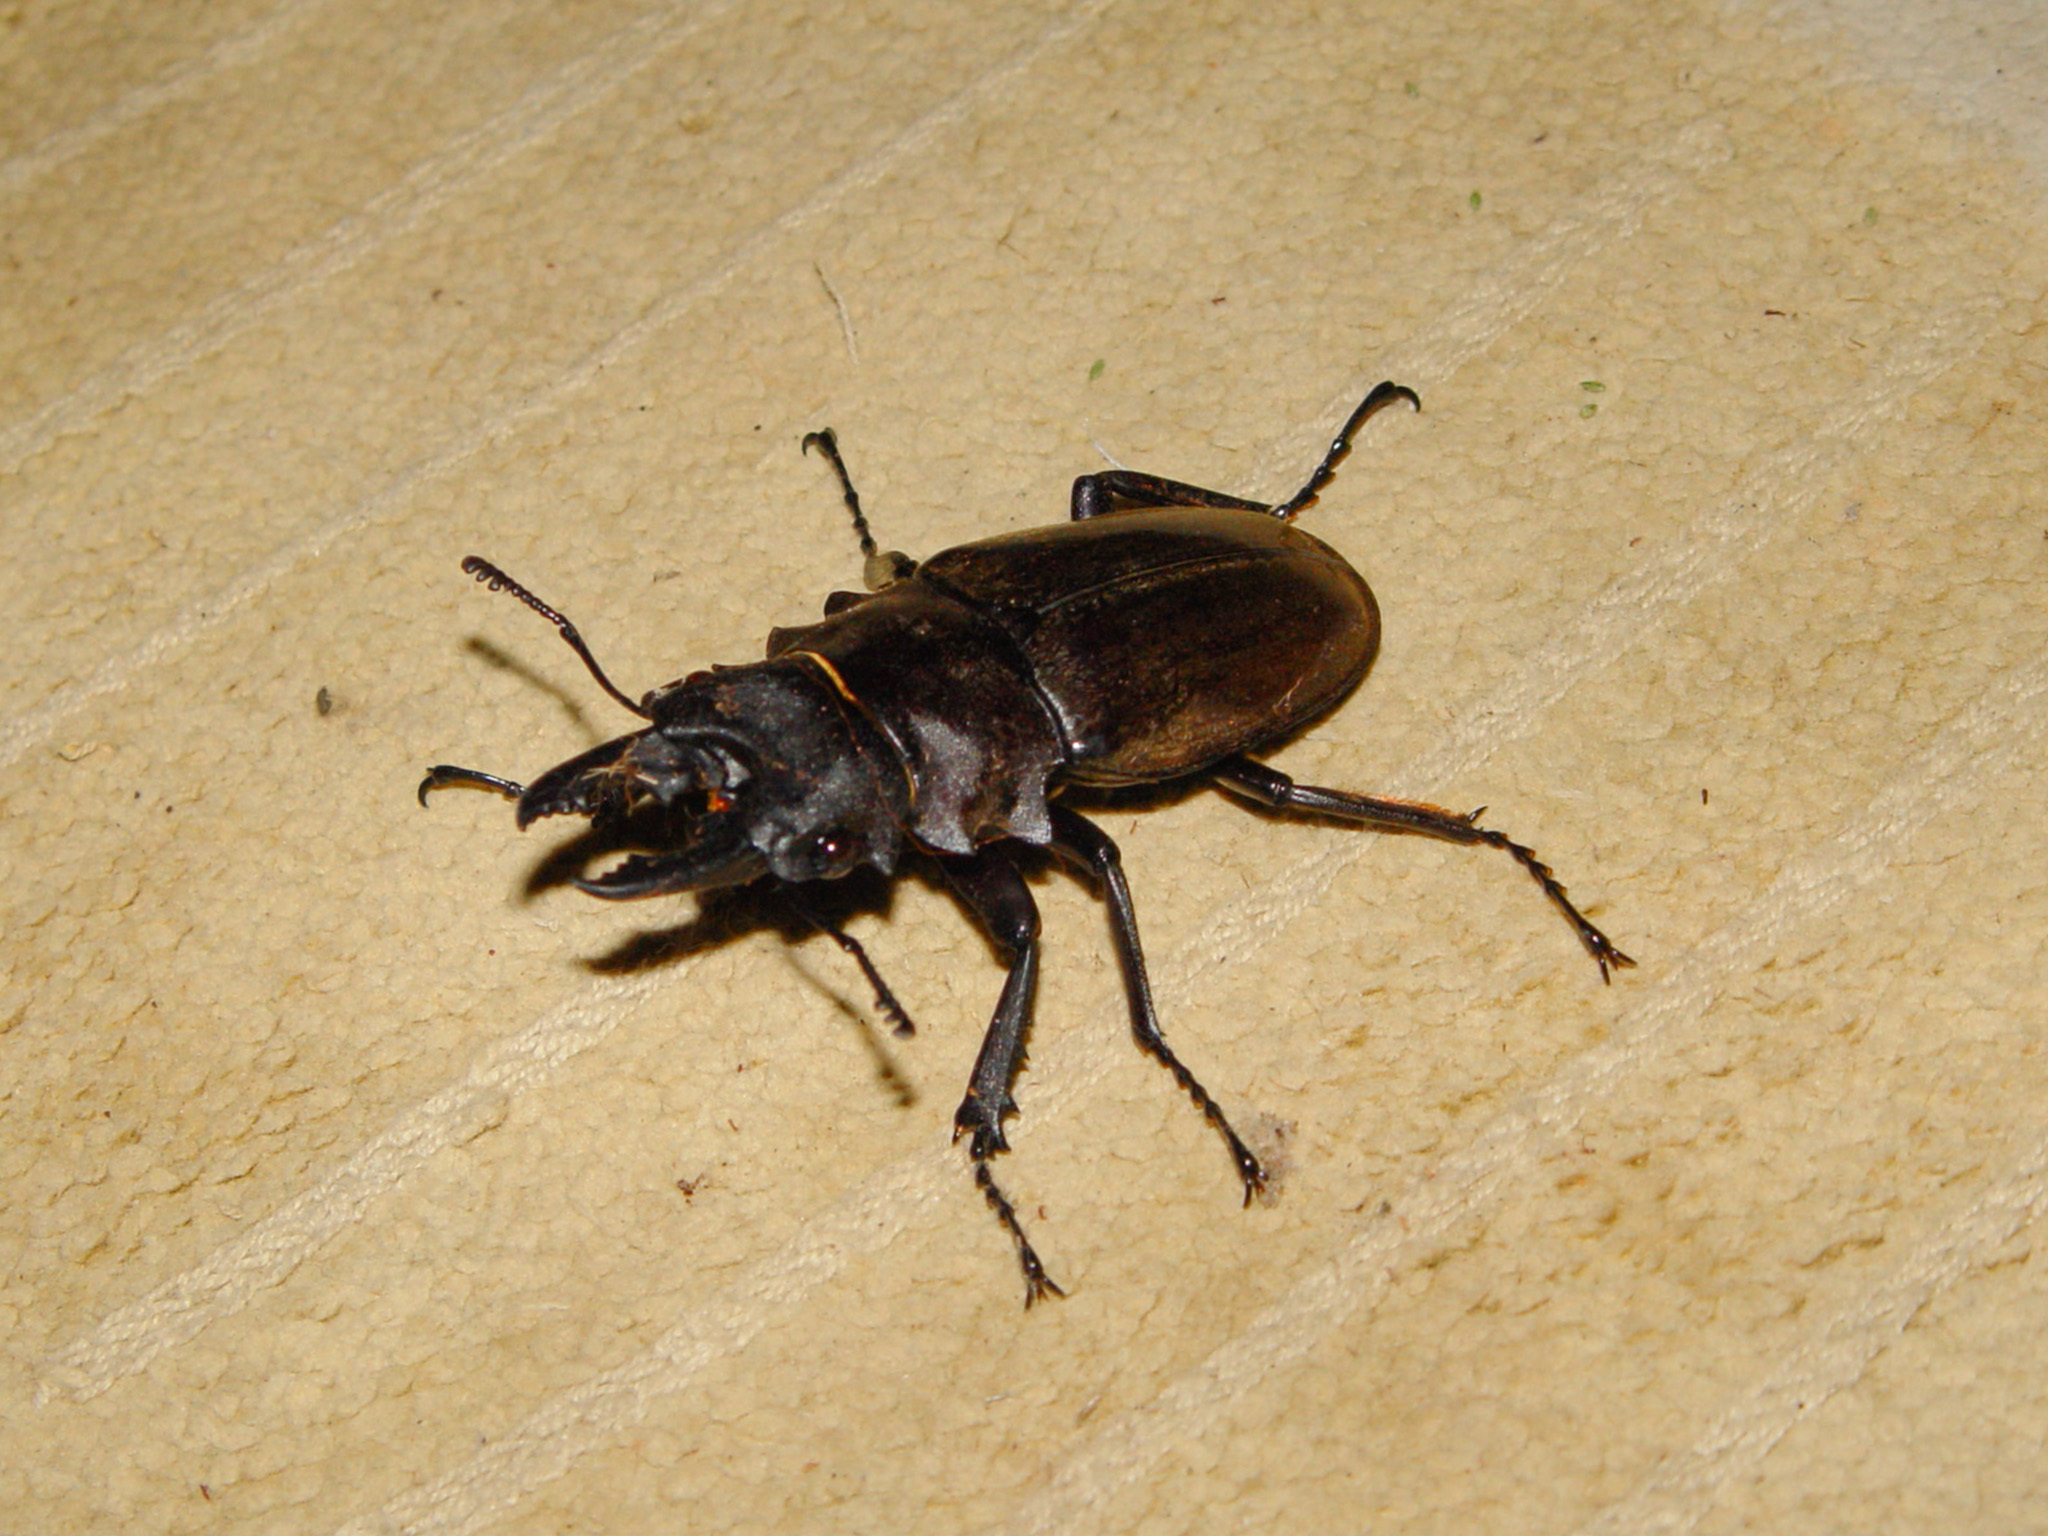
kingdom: Animalia
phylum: Arthropoda
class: Insecta
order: Coleoptera
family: Lucanidae
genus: Odontolabis
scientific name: Odontolabis dalmani
